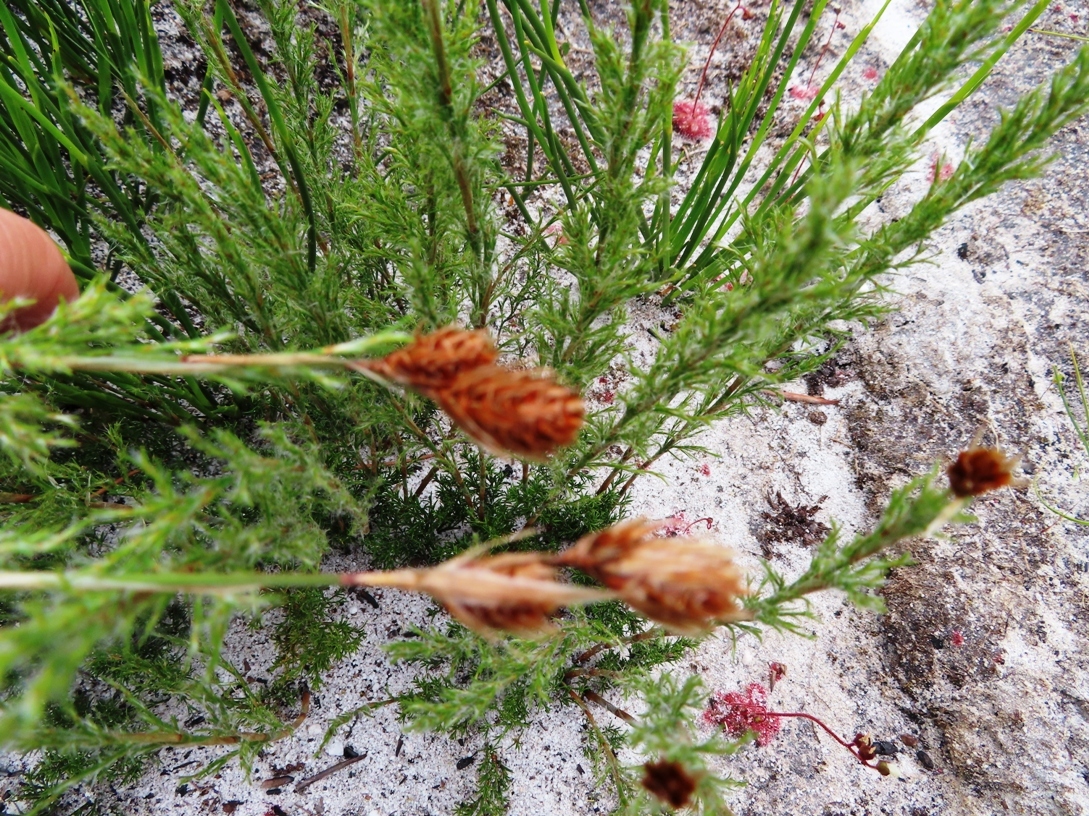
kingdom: Plantae
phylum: Tracheophyta
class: Liliopsida
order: Poales
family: Restionaceae
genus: Thamnochortus
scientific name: Thamnochortus fruticosus
